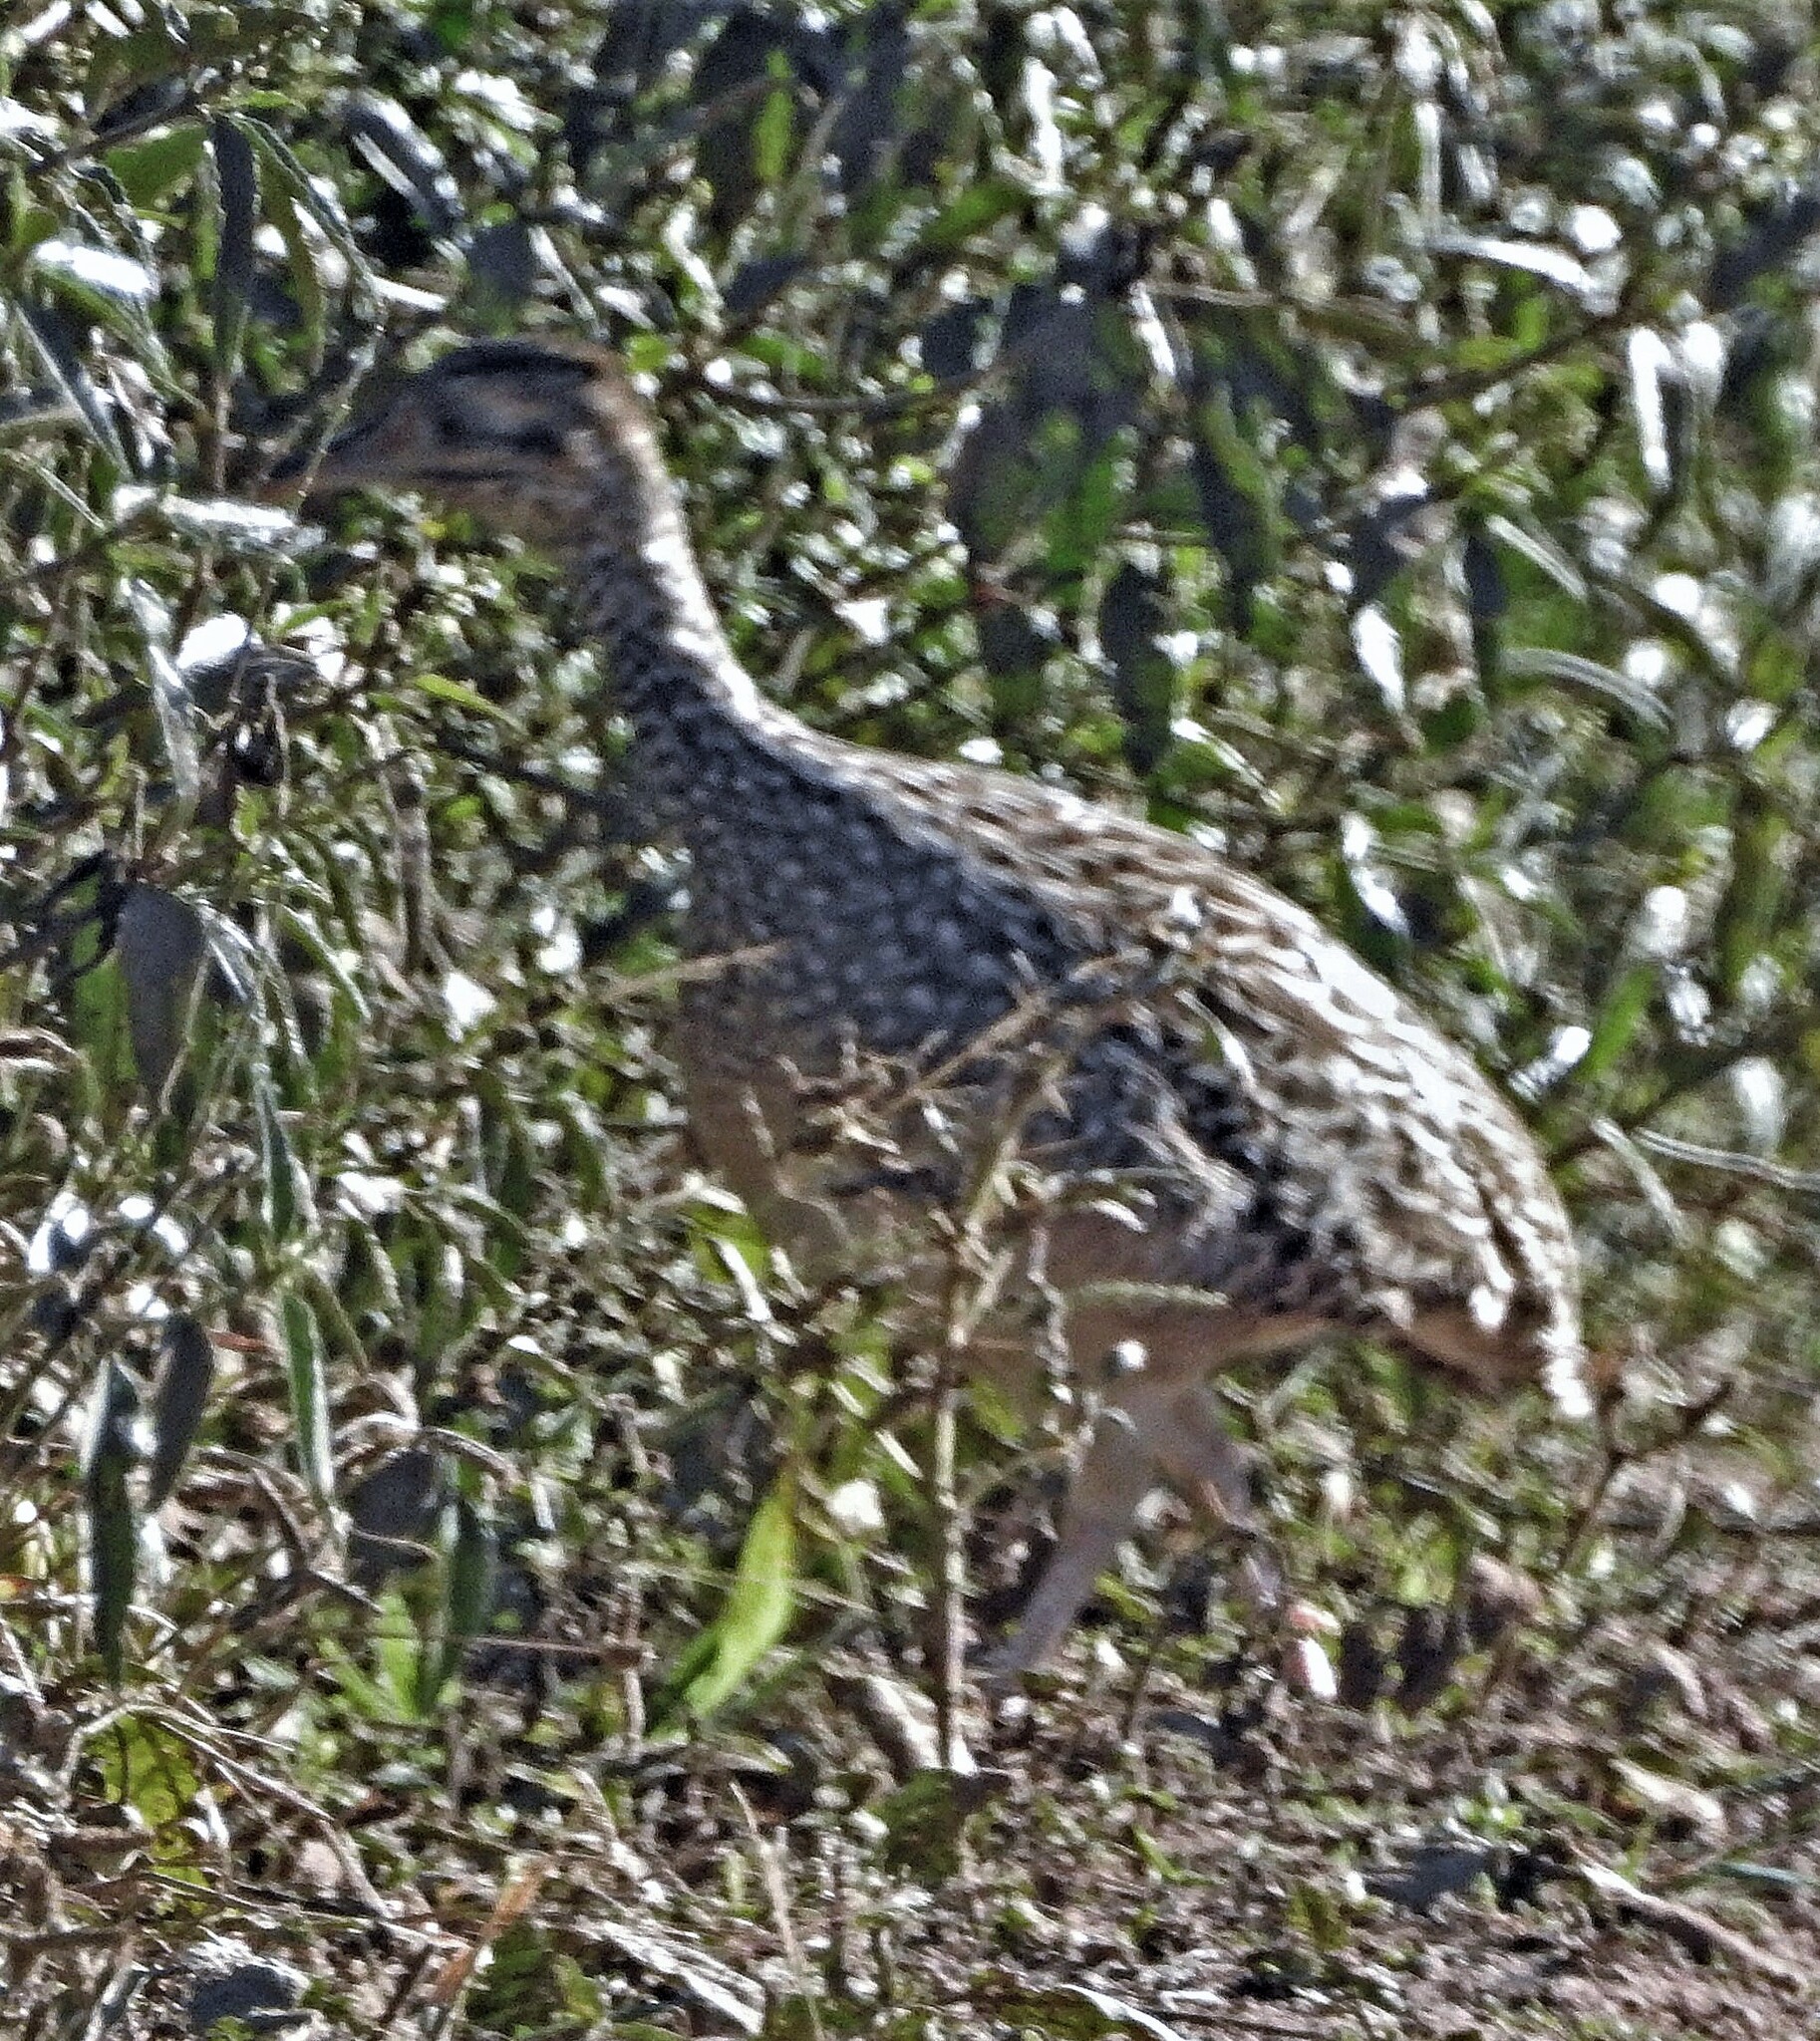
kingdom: Animalia
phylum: Chordata
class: Aves
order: Tinamiformes
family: Tinamidae
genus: Nothoprocta
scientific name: Nothoprocta cinerascens
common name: Brushland tinamou
